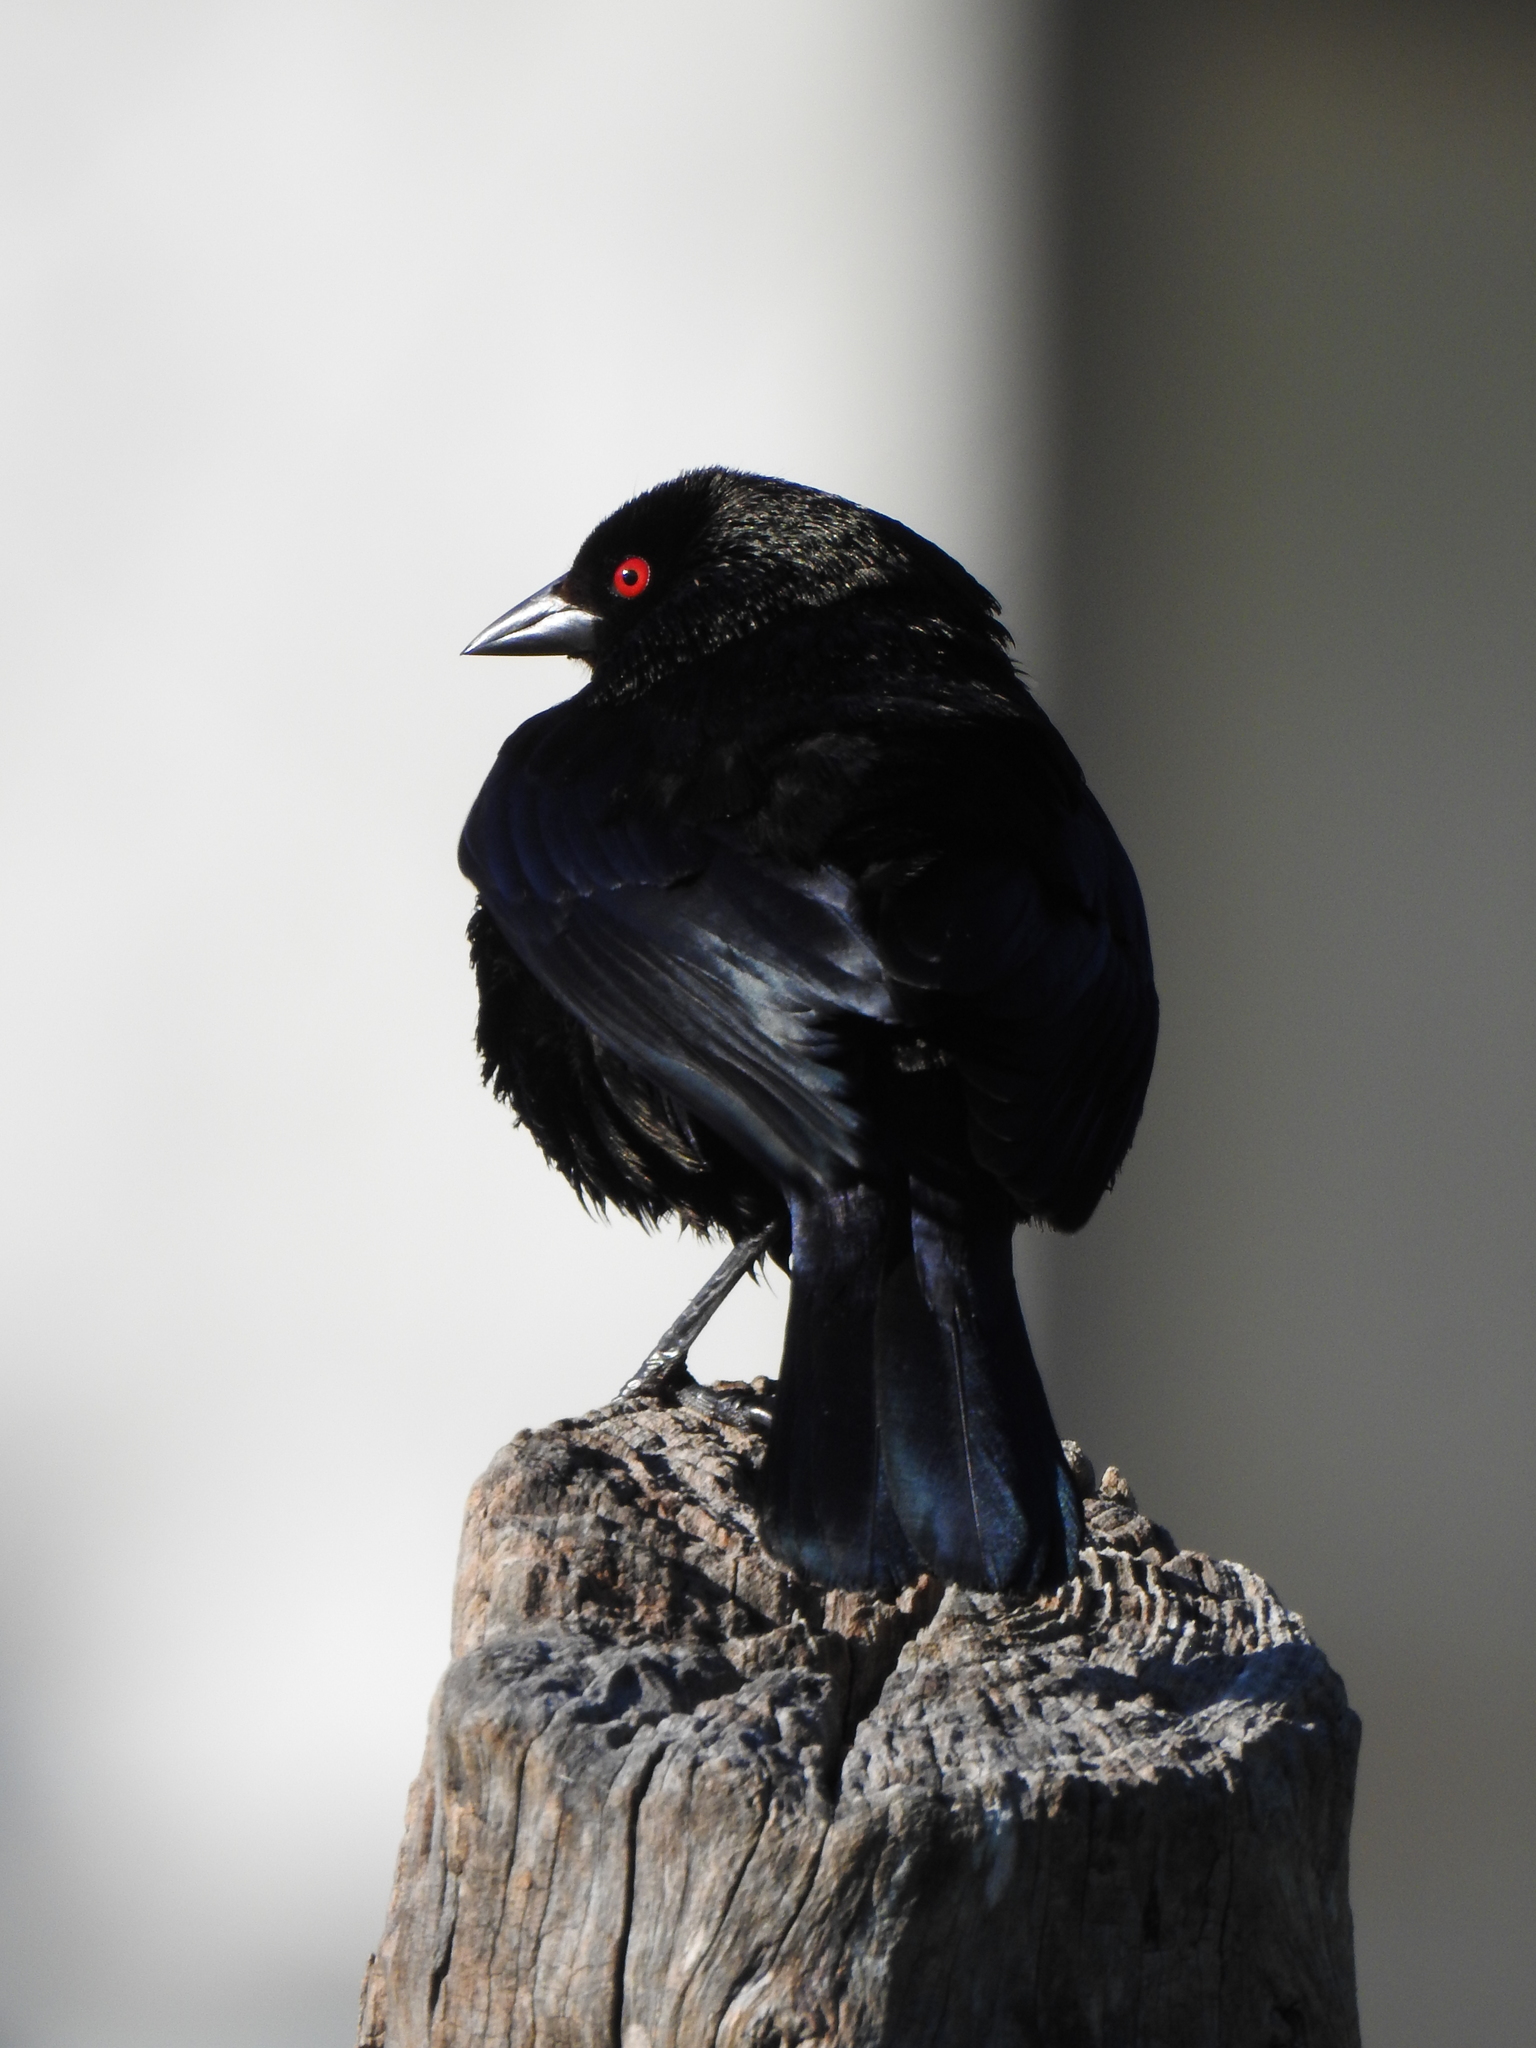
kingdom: Animalia
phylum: Chordata
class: Aves
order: Passeriformes
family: Icteridae
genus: Molothrus
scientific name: Molothrus aeneus
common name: Bronzed cowbird
